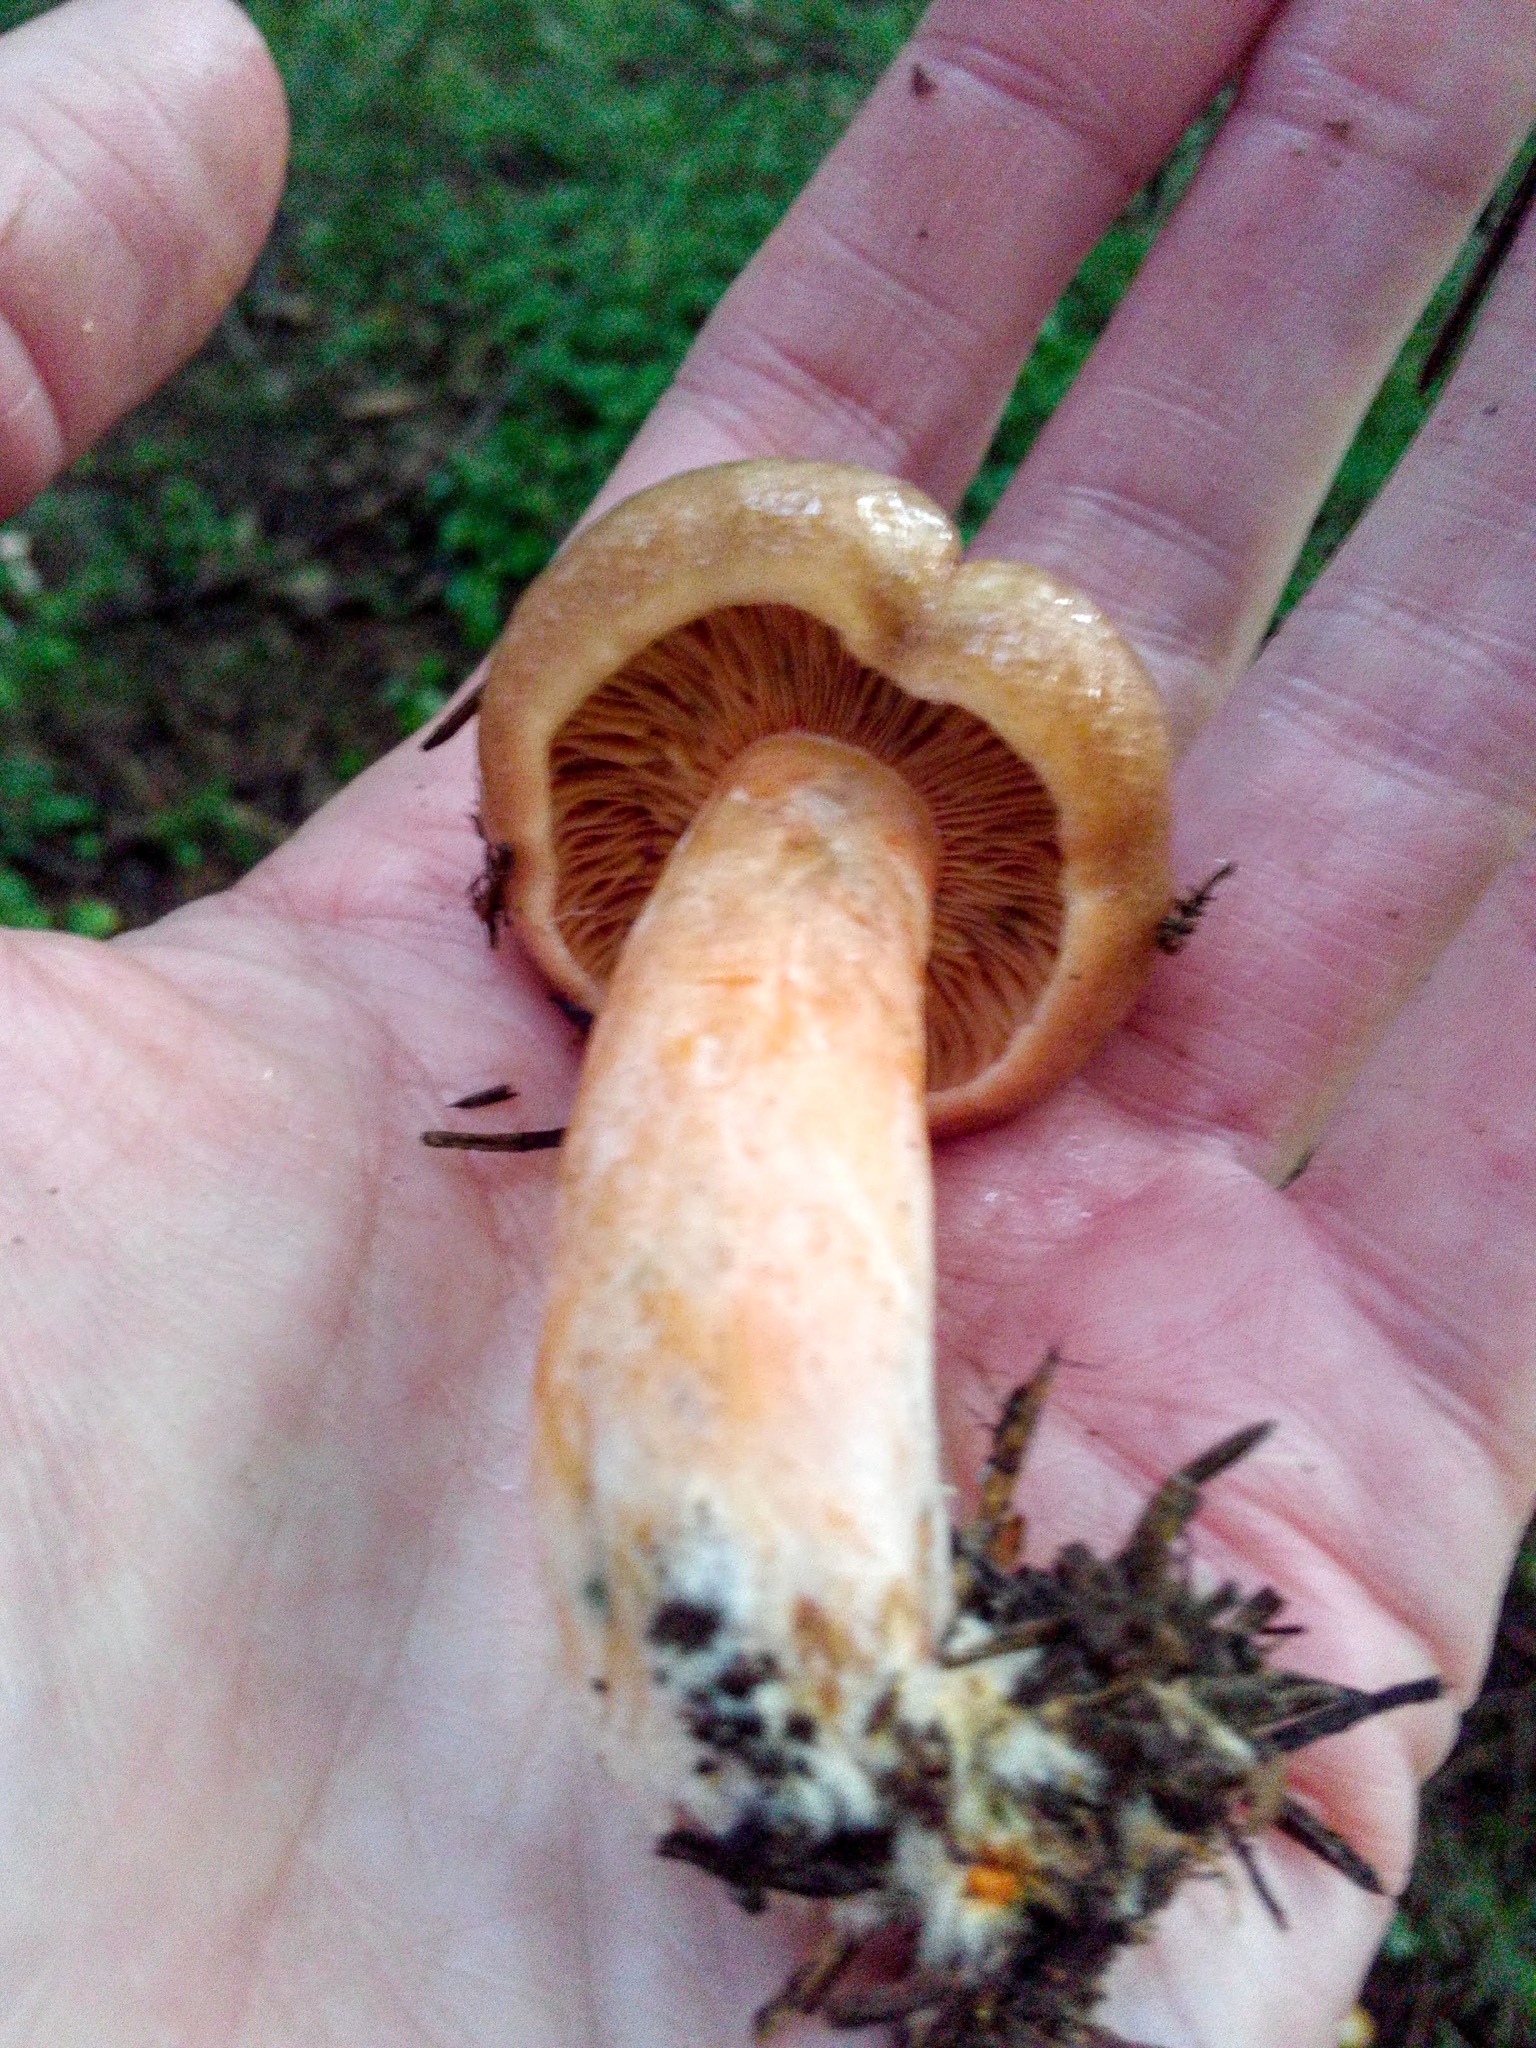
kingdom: Fungi
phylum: Basidiomycota
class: Agaricomycetes
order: Russulales
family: Russulaceae
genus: Lactarius
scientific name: Lactarius deliciosus
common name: Saffron milk-cap
